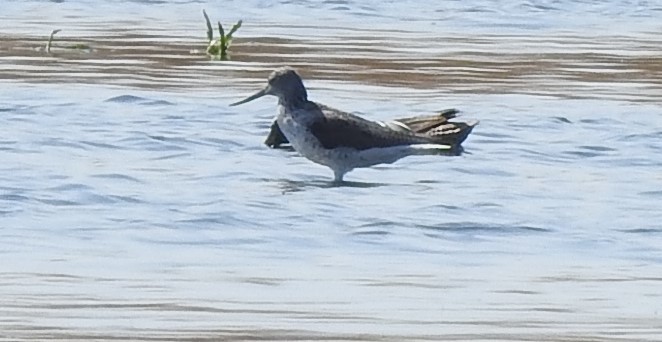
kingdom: Animalia
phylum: Chordata
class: Aves
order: Charadriiformes
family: Scolopacidae
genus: Tringa
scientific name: Tringa nebularia
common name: Common greenshank
